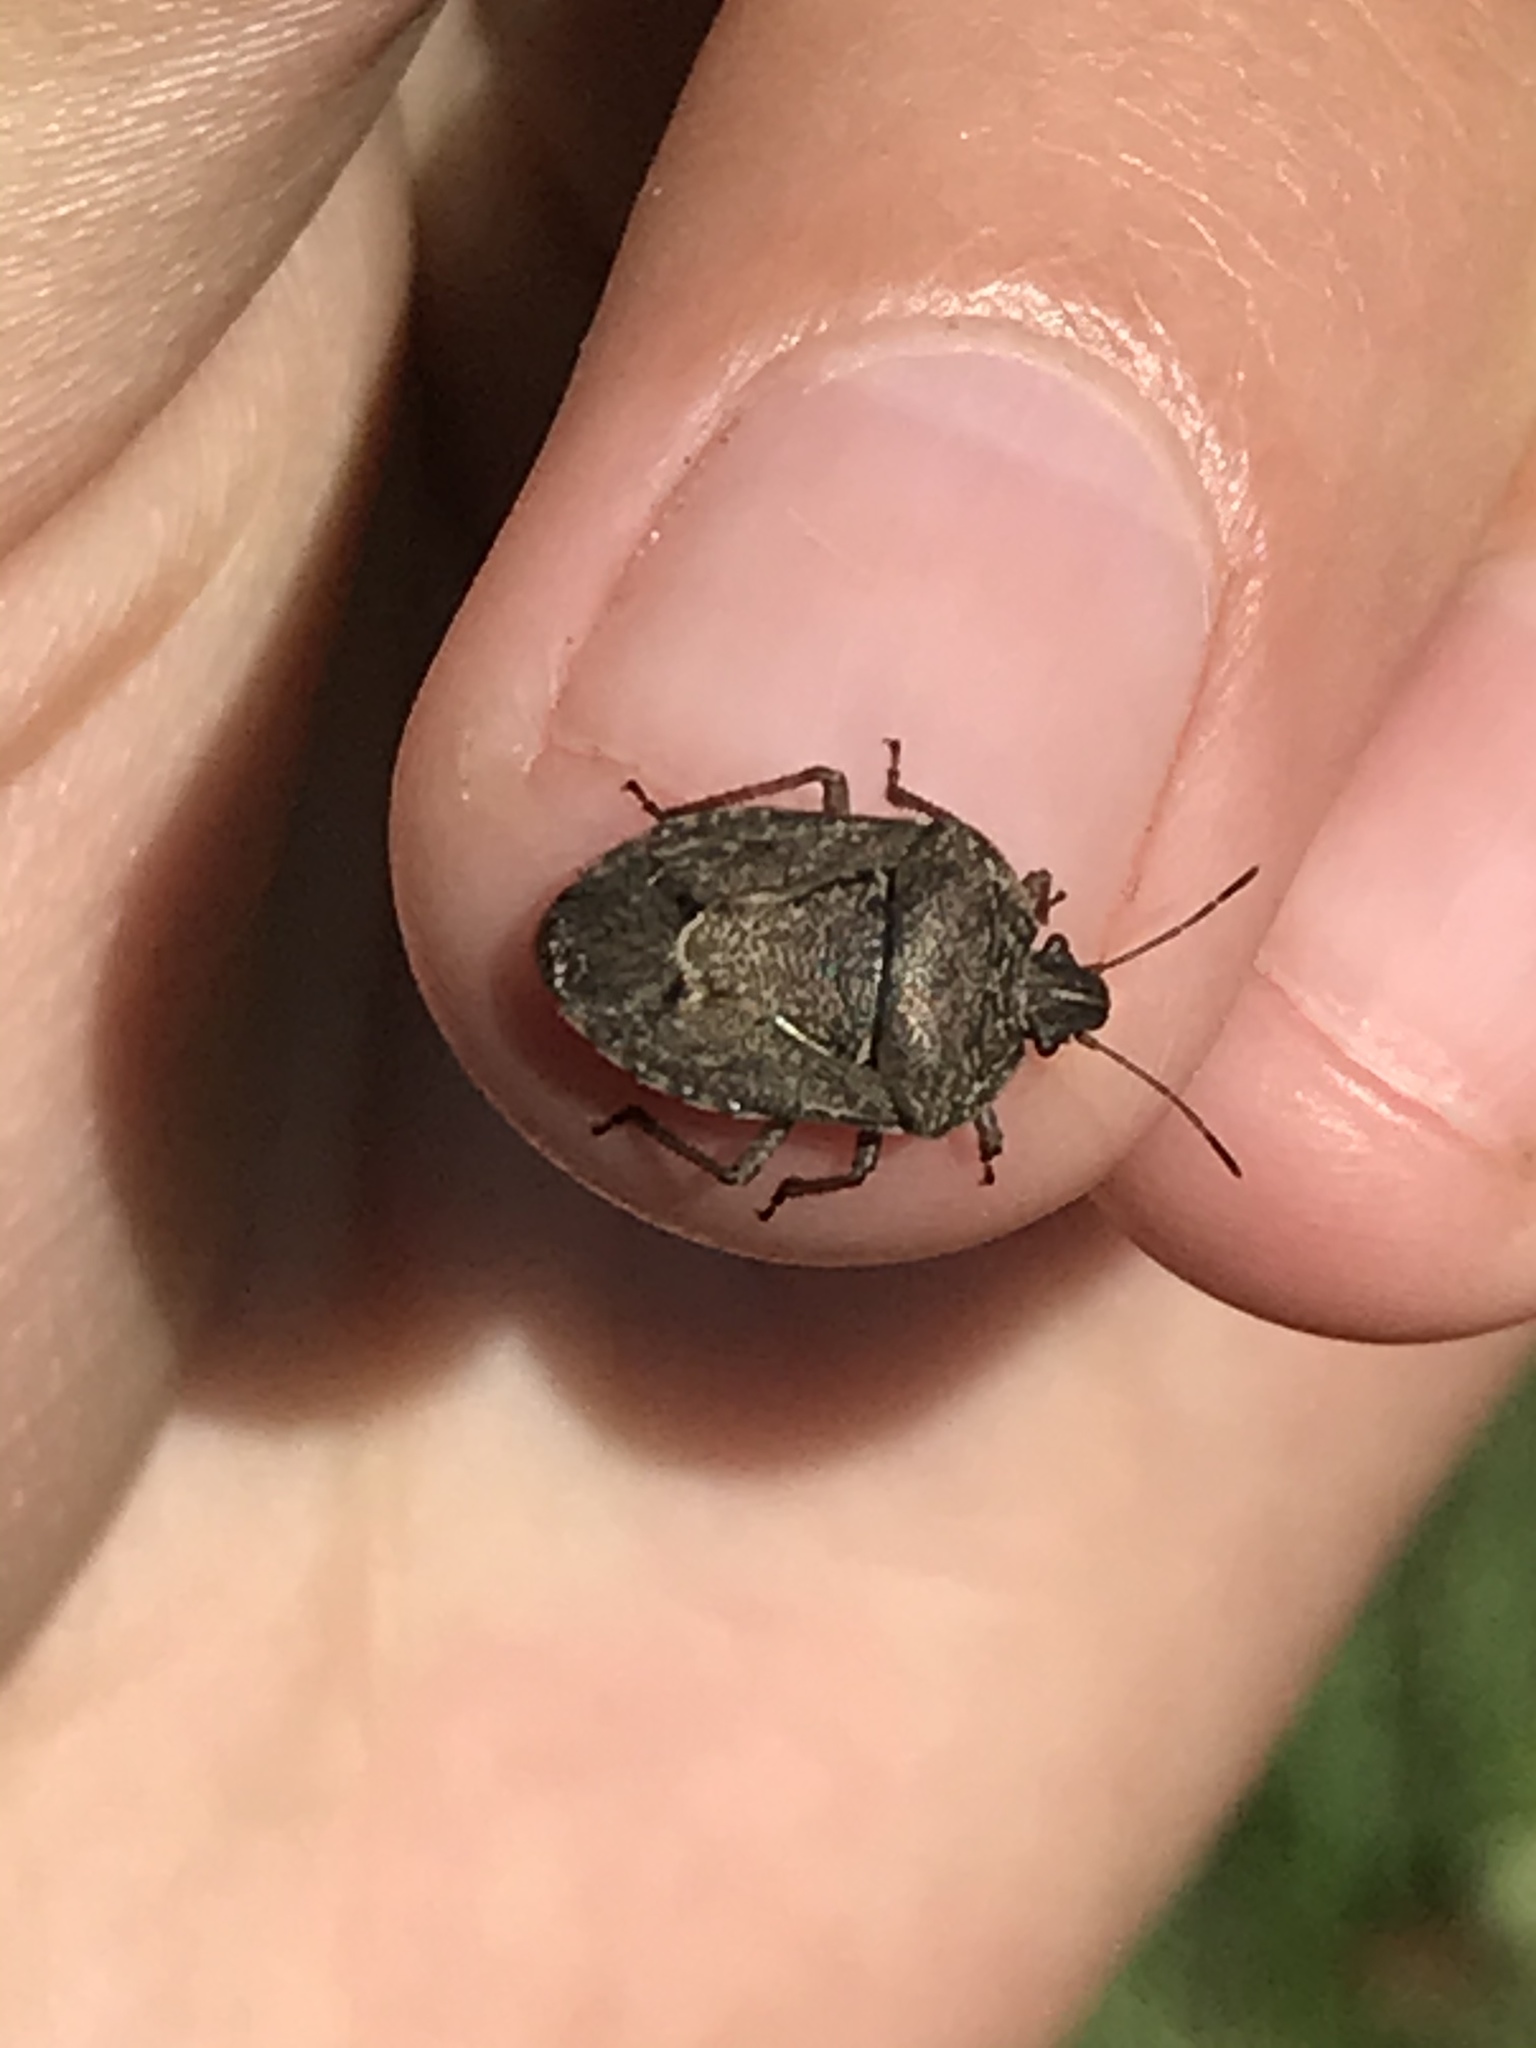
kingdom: Animalia
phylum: Arthropoda
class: Insecta
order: Hemiptera
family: Pentatomidae
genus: Hymenarcys
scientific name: Hymenarcys nervosa
